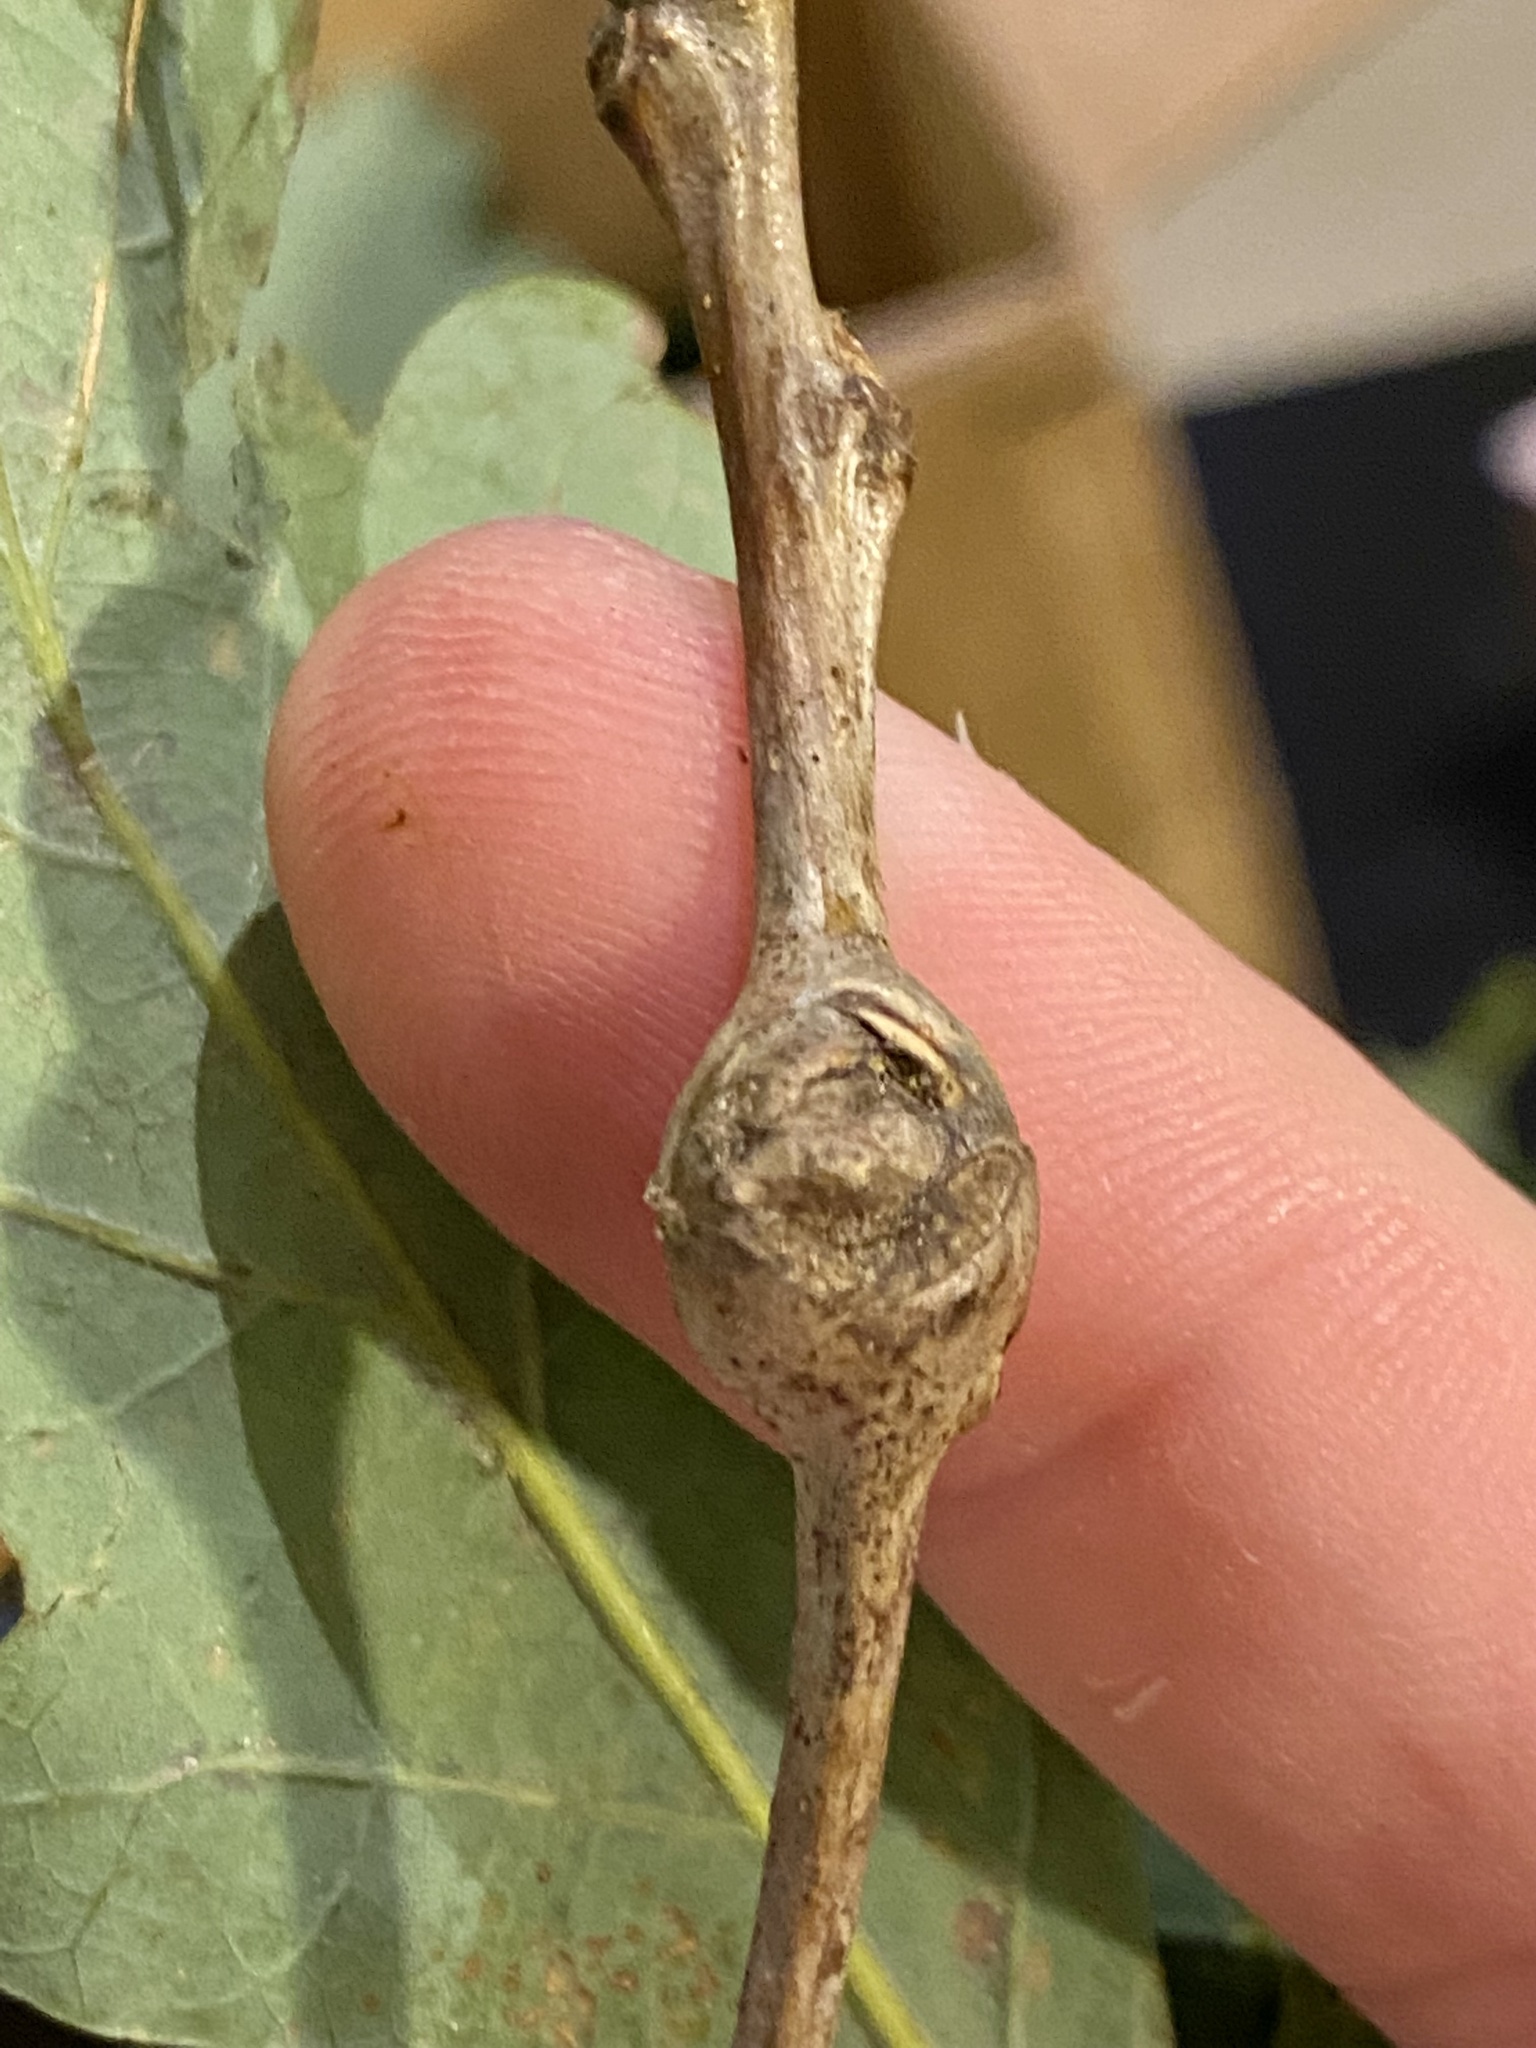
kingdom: Animalia
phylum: Arthropoda
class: Insecta
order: Hymenoptera
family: Cynipidae
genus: Callirhytis
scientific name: Callirhytis clavula
